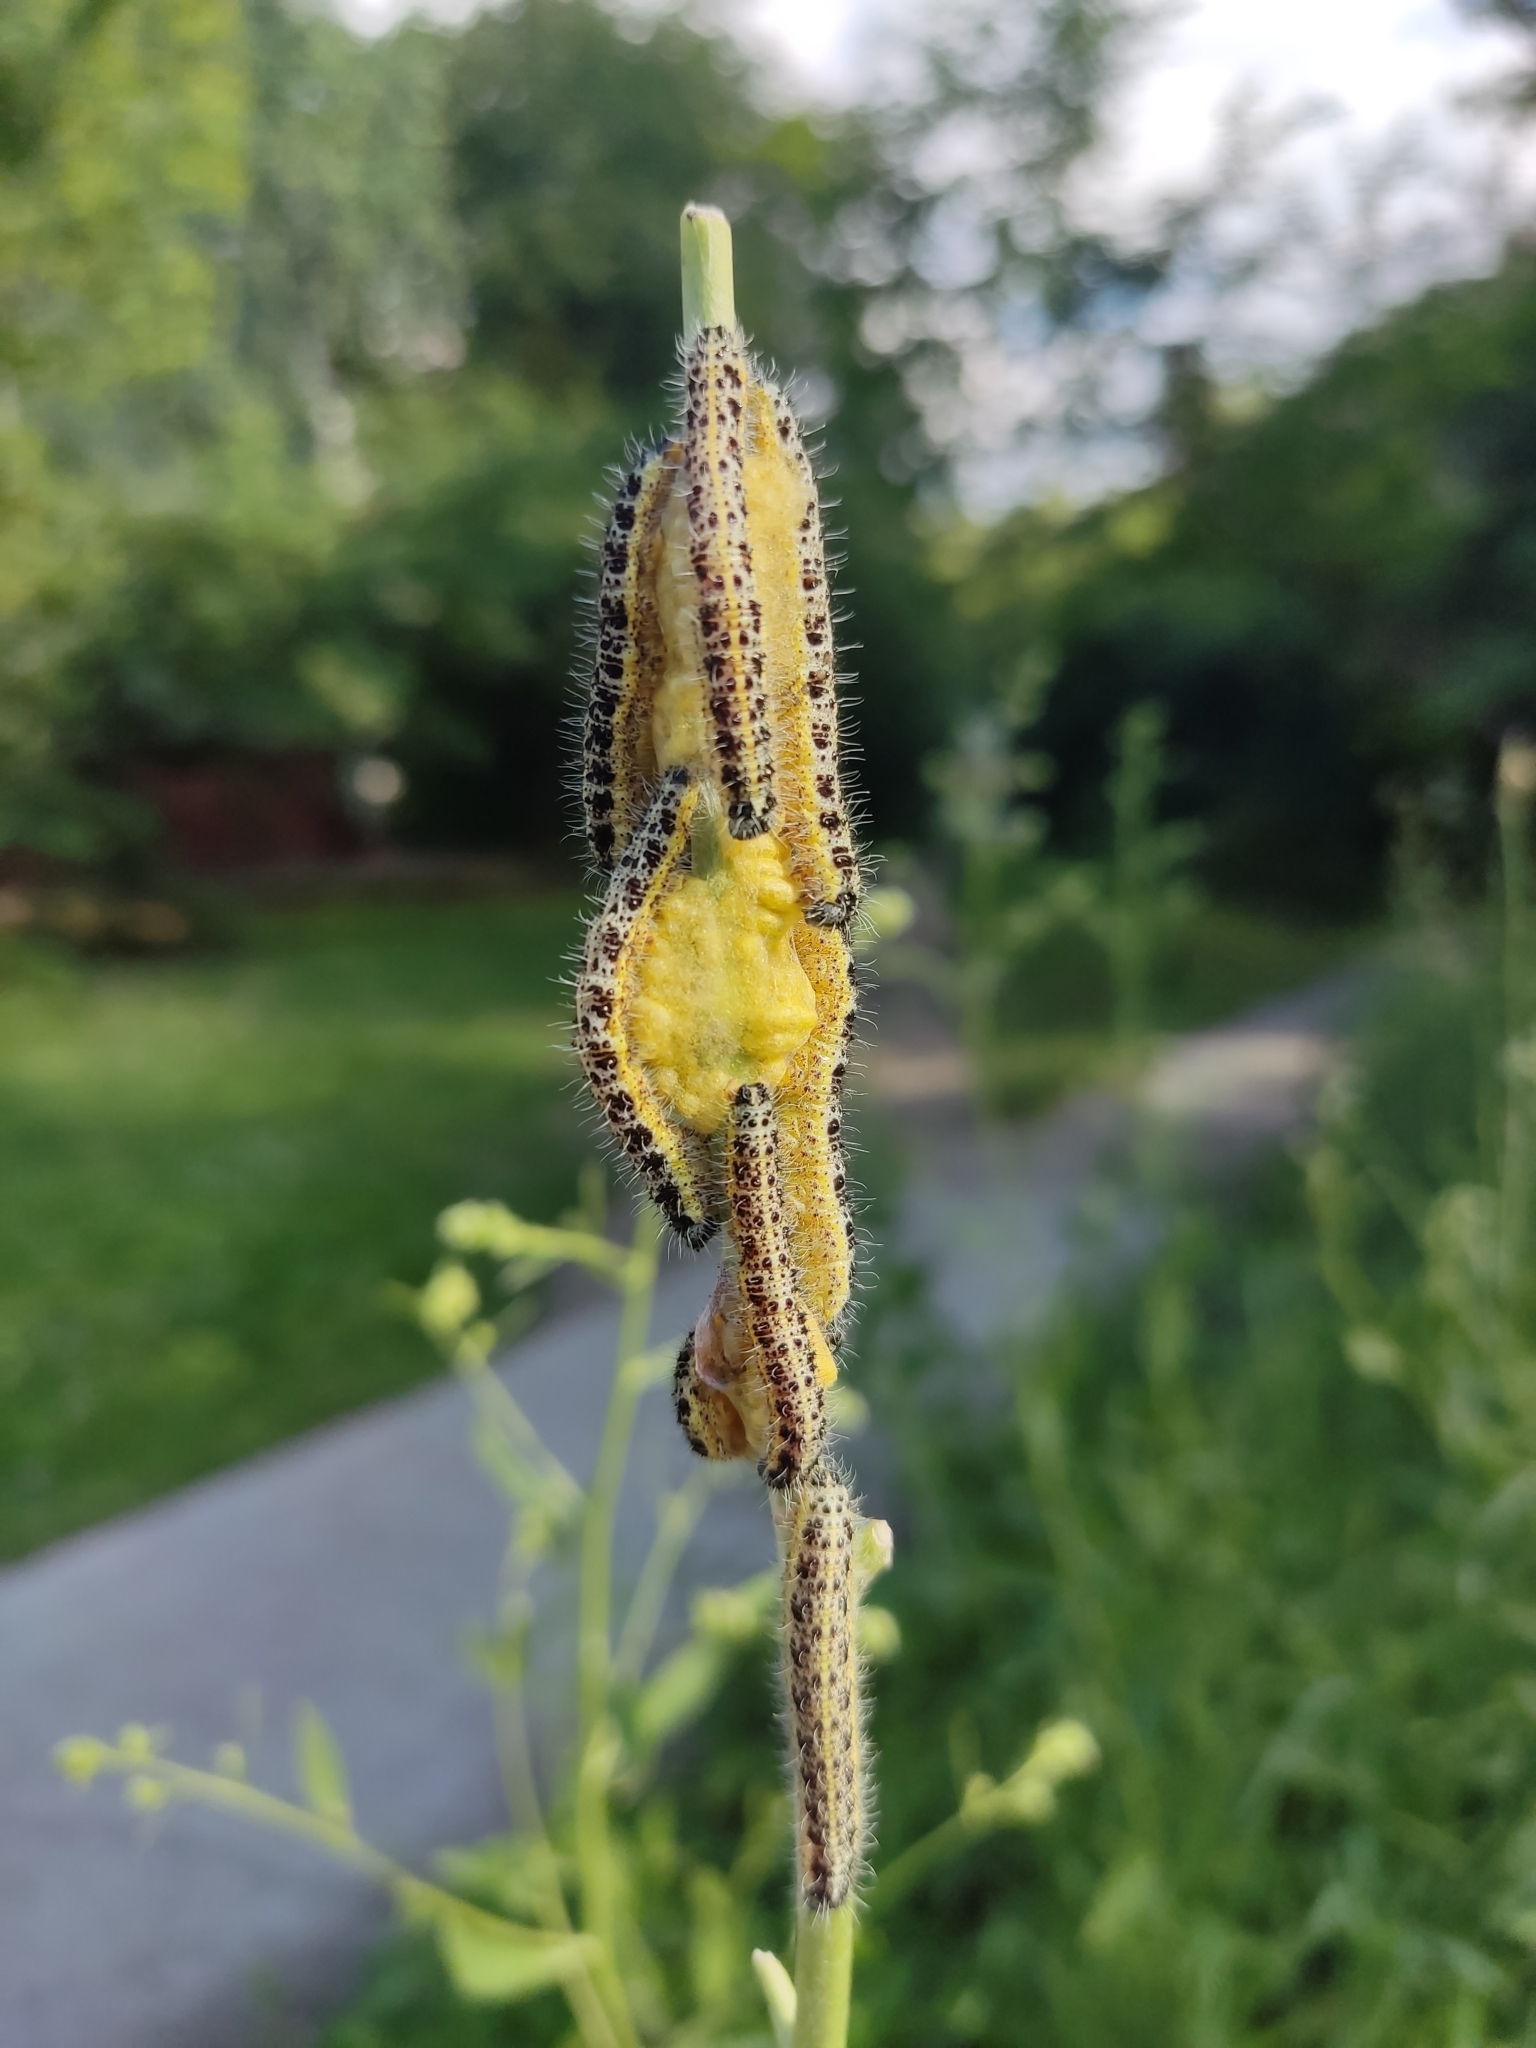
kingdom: Animalia
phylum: Arthropoda
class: Insecta
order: Lepidoptera
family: Pieridae
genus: Pieris
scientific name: Pieris brassicae
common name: Large white
